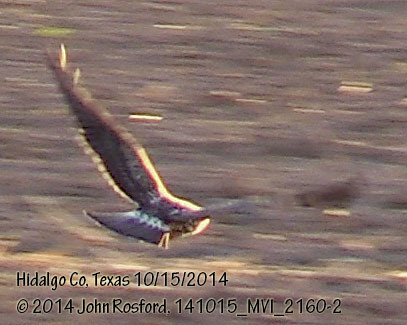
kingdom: Animalia
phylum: Chordata
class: Aves
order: Accipitriformes
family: Accipitridae
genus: Buteo
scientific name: Buteo swainsoni
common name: Swainson's hawk
